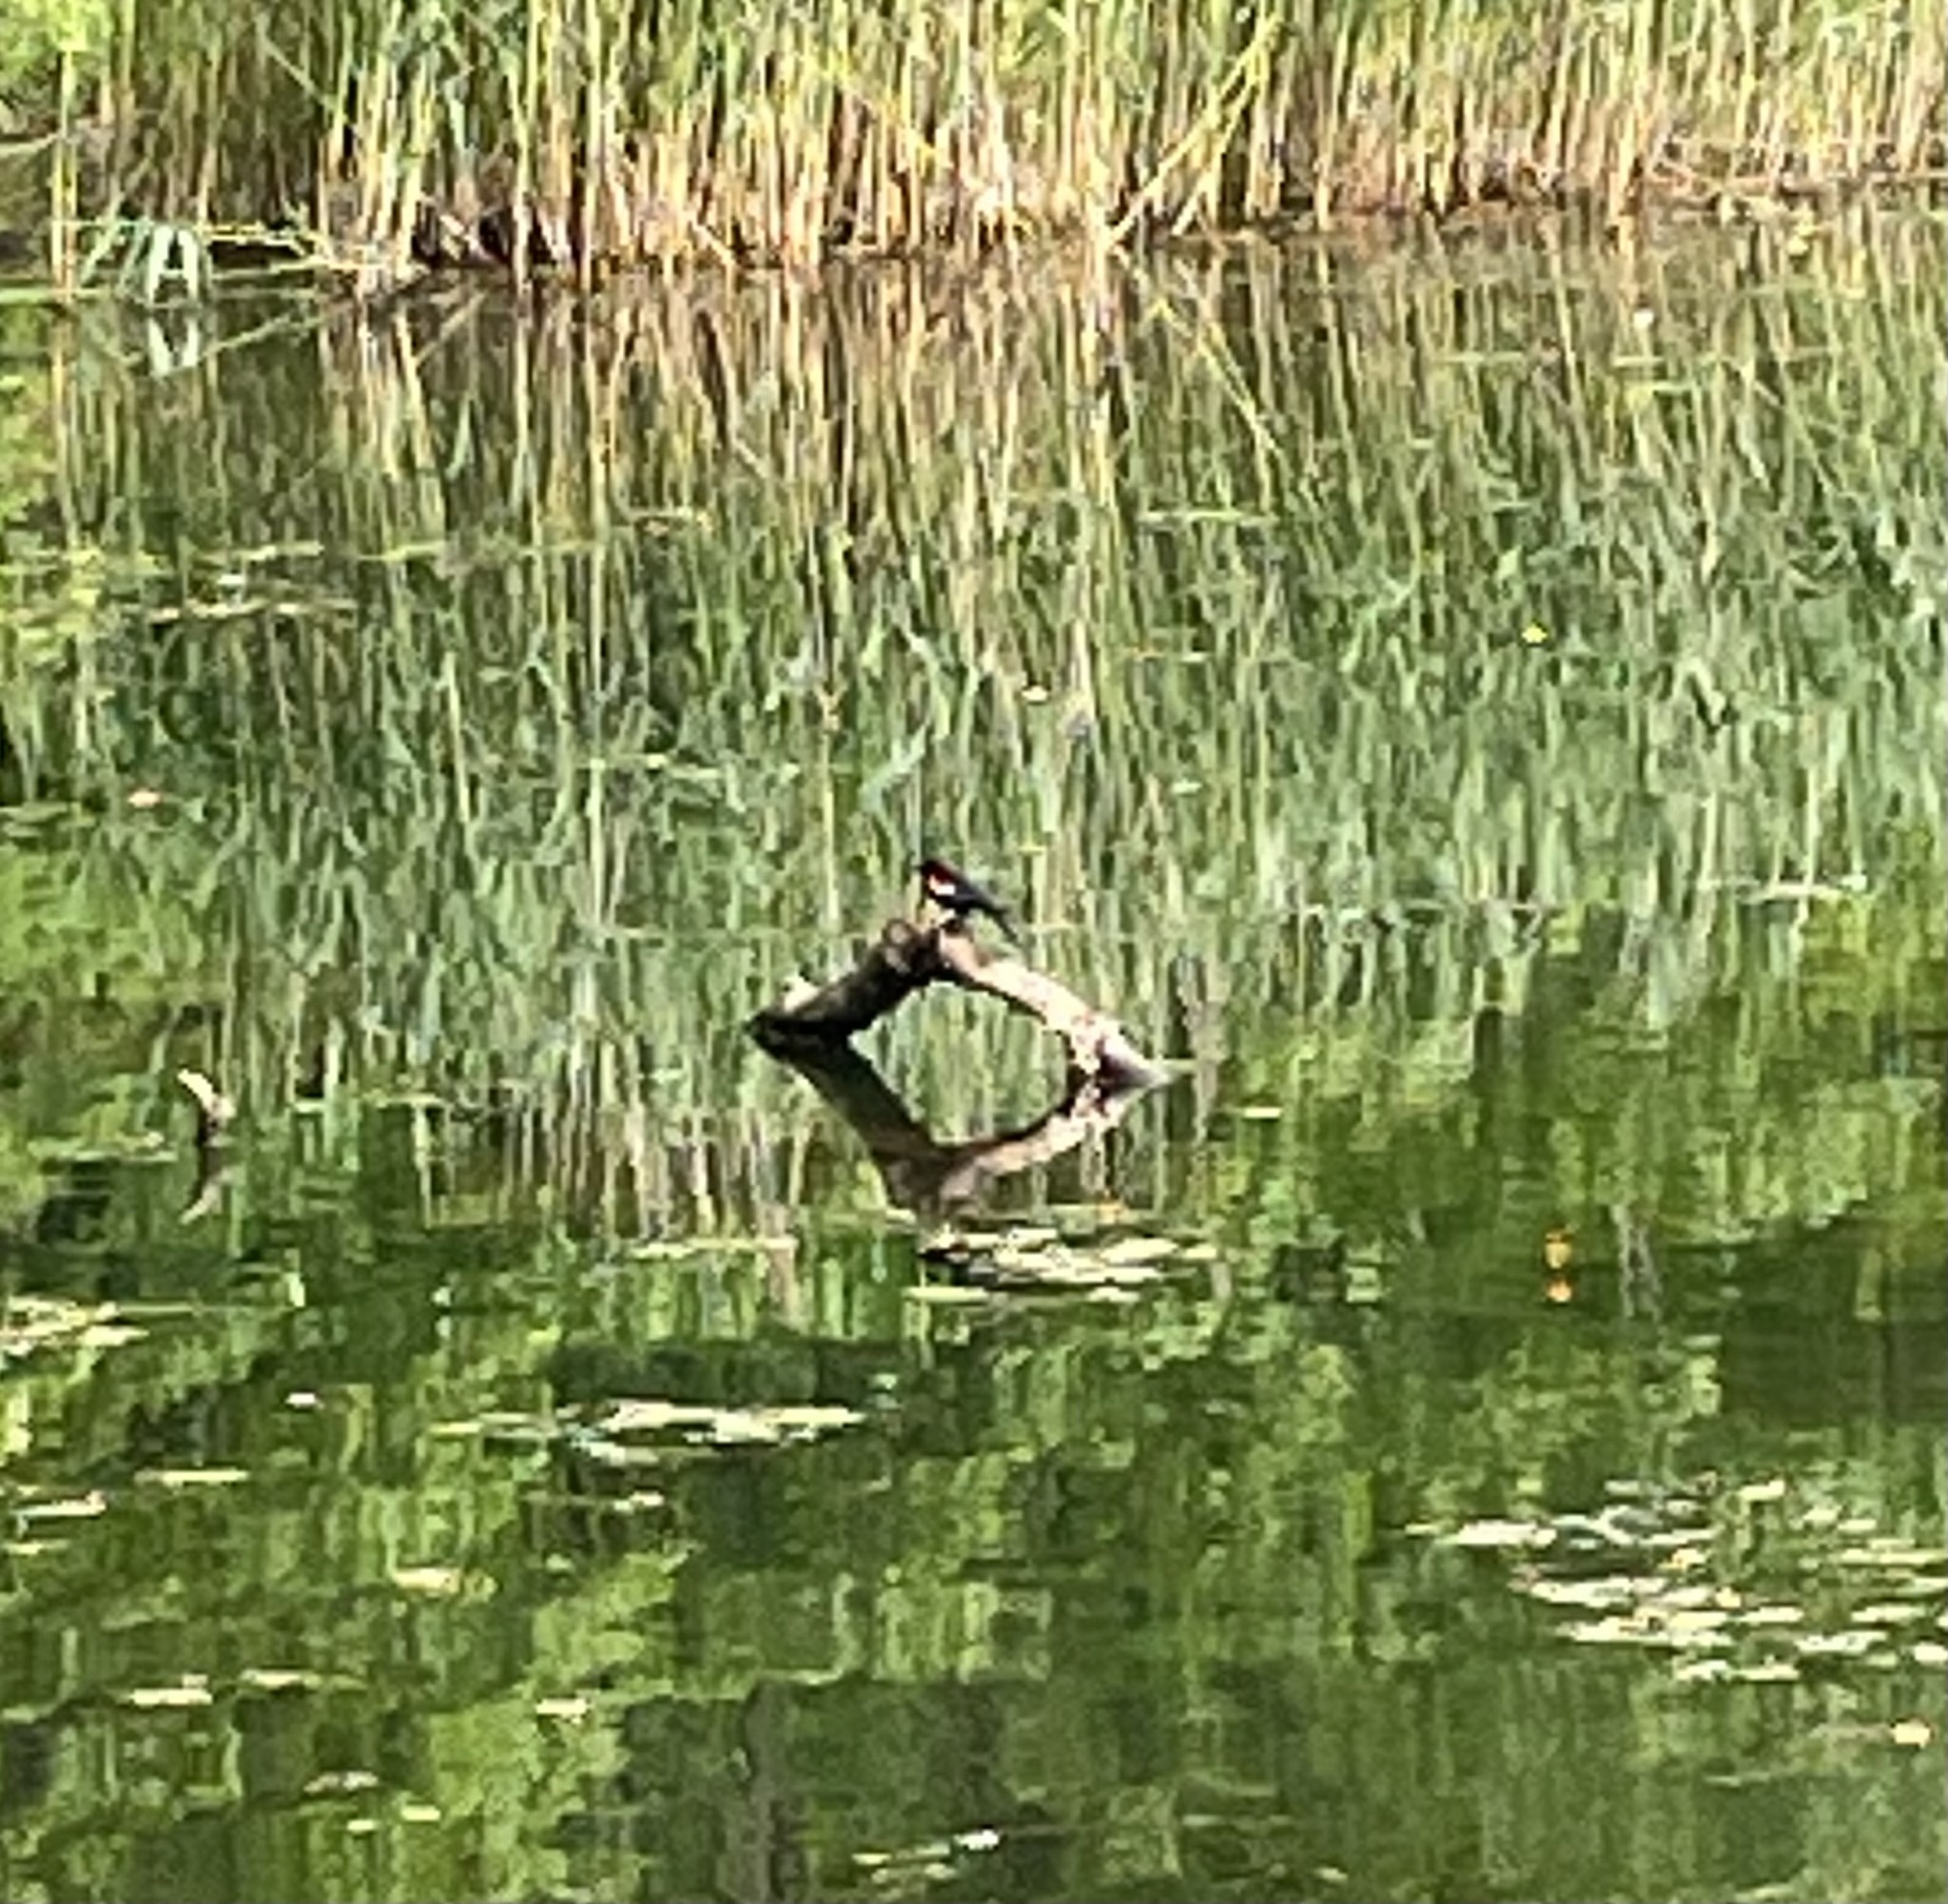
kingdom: Animalia
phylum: Chordata
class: Aves
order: Passeriformes
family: Icteridae
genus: Agelaius
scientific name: Agelaius phoeniceus
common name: Red-winged blackbird
